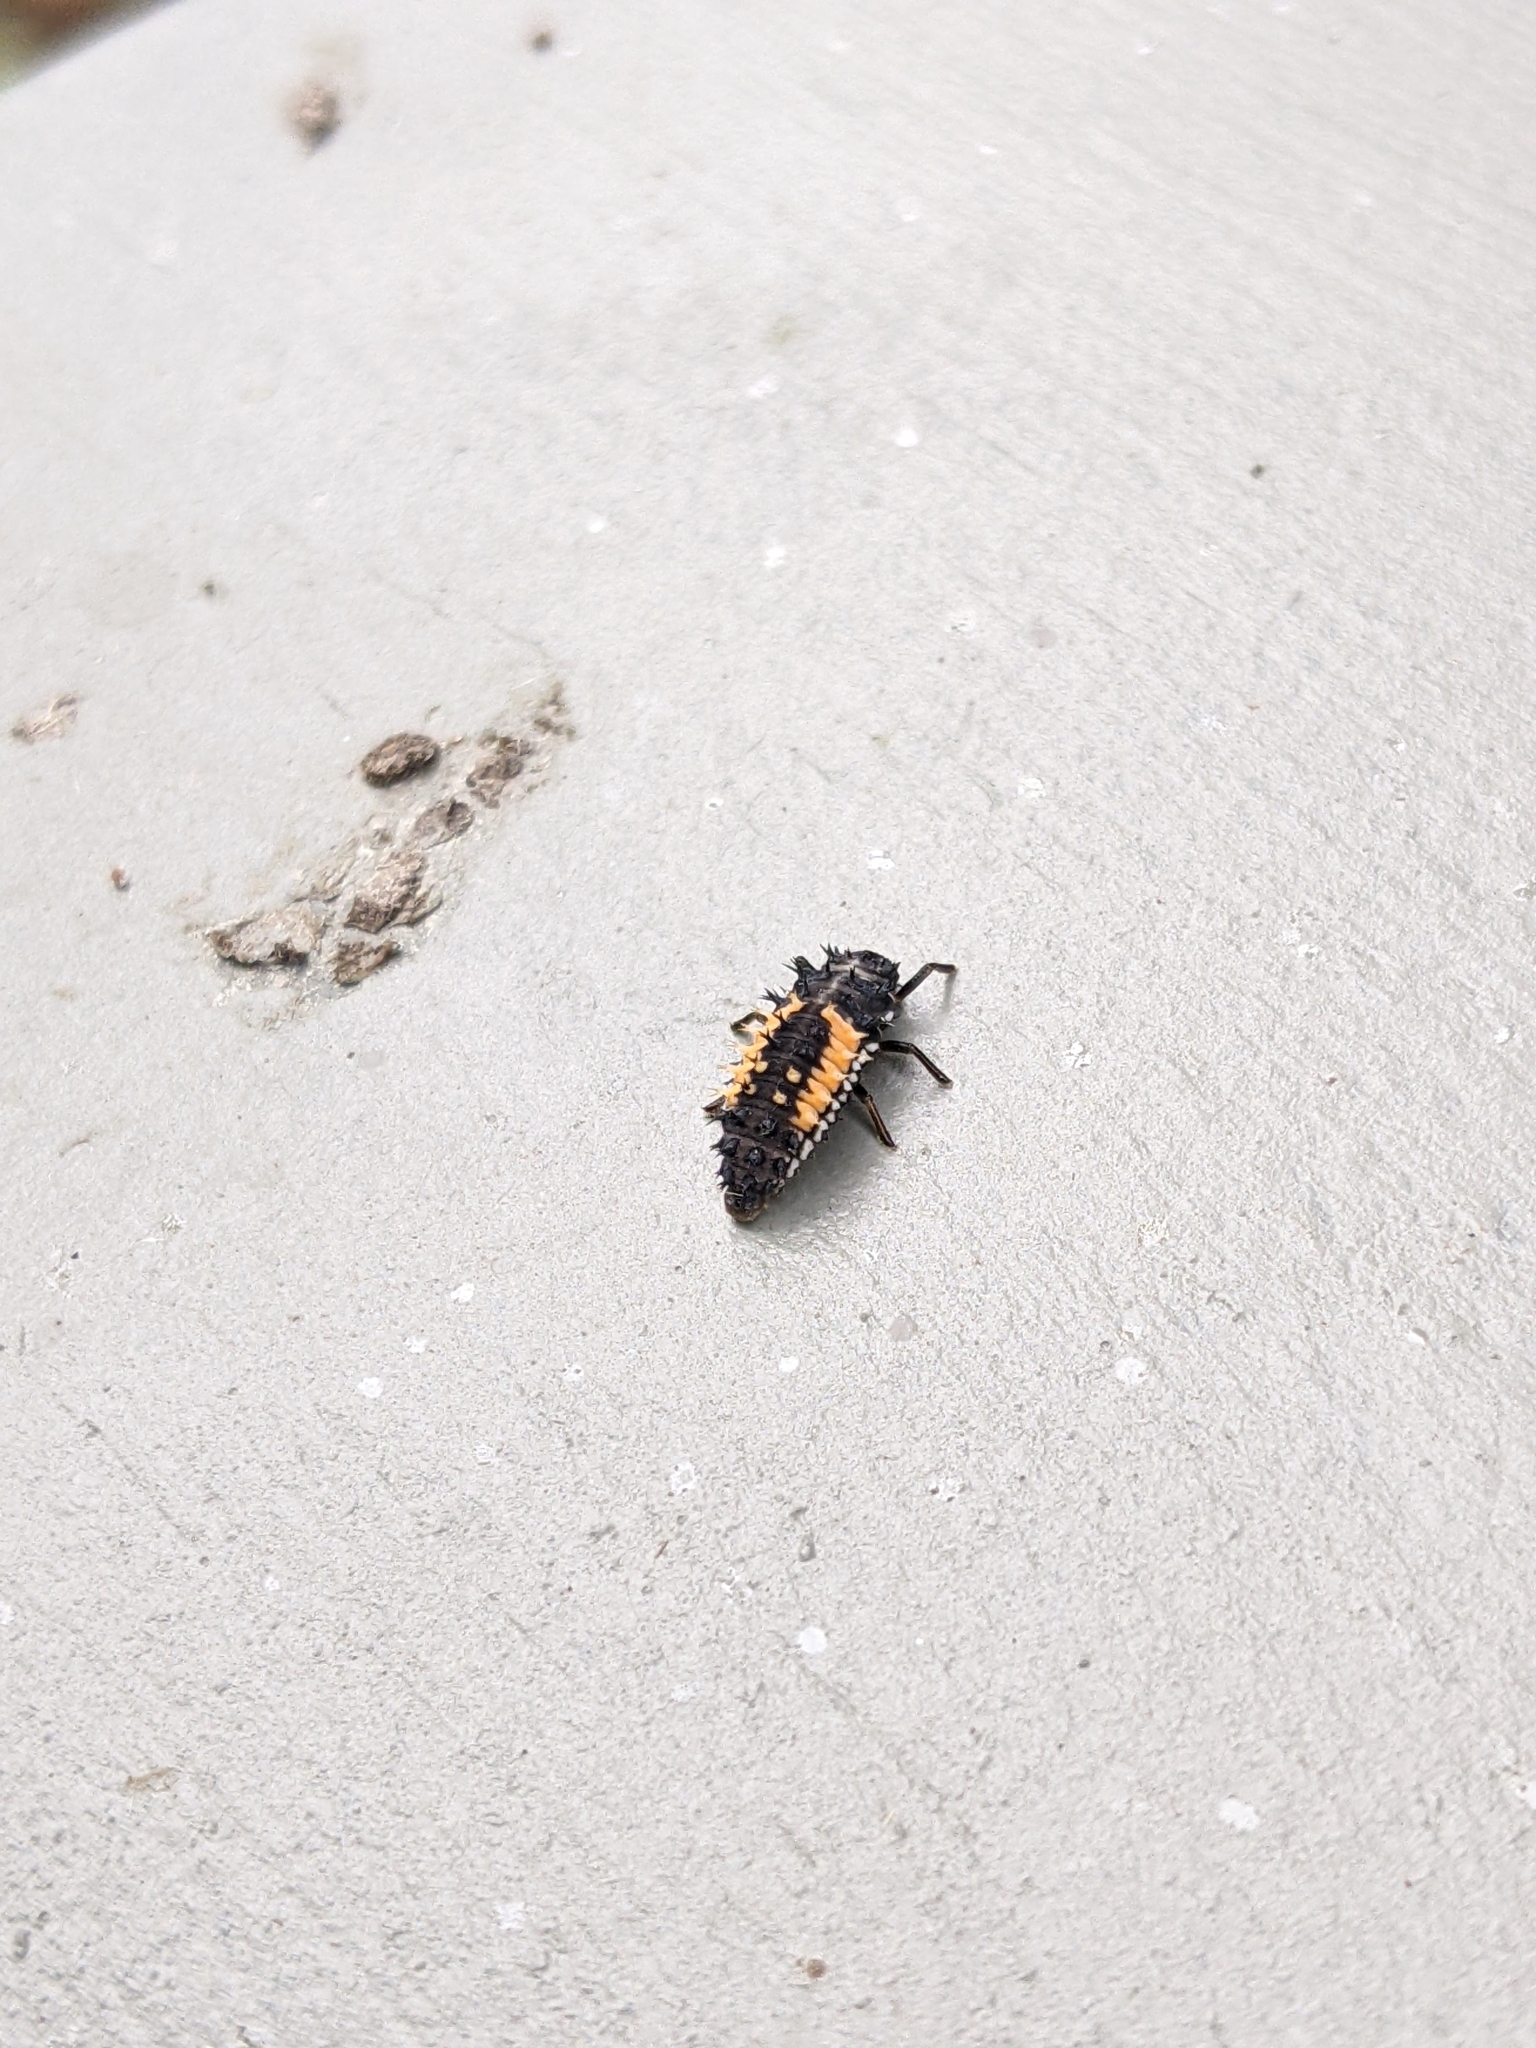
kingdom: Animalia
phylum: Arthropoda
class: Insecta
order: Coleoptera
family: Coccinellidae
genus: Harmonia
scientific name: Harmonia axyridis
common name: Harlequin ladybird
